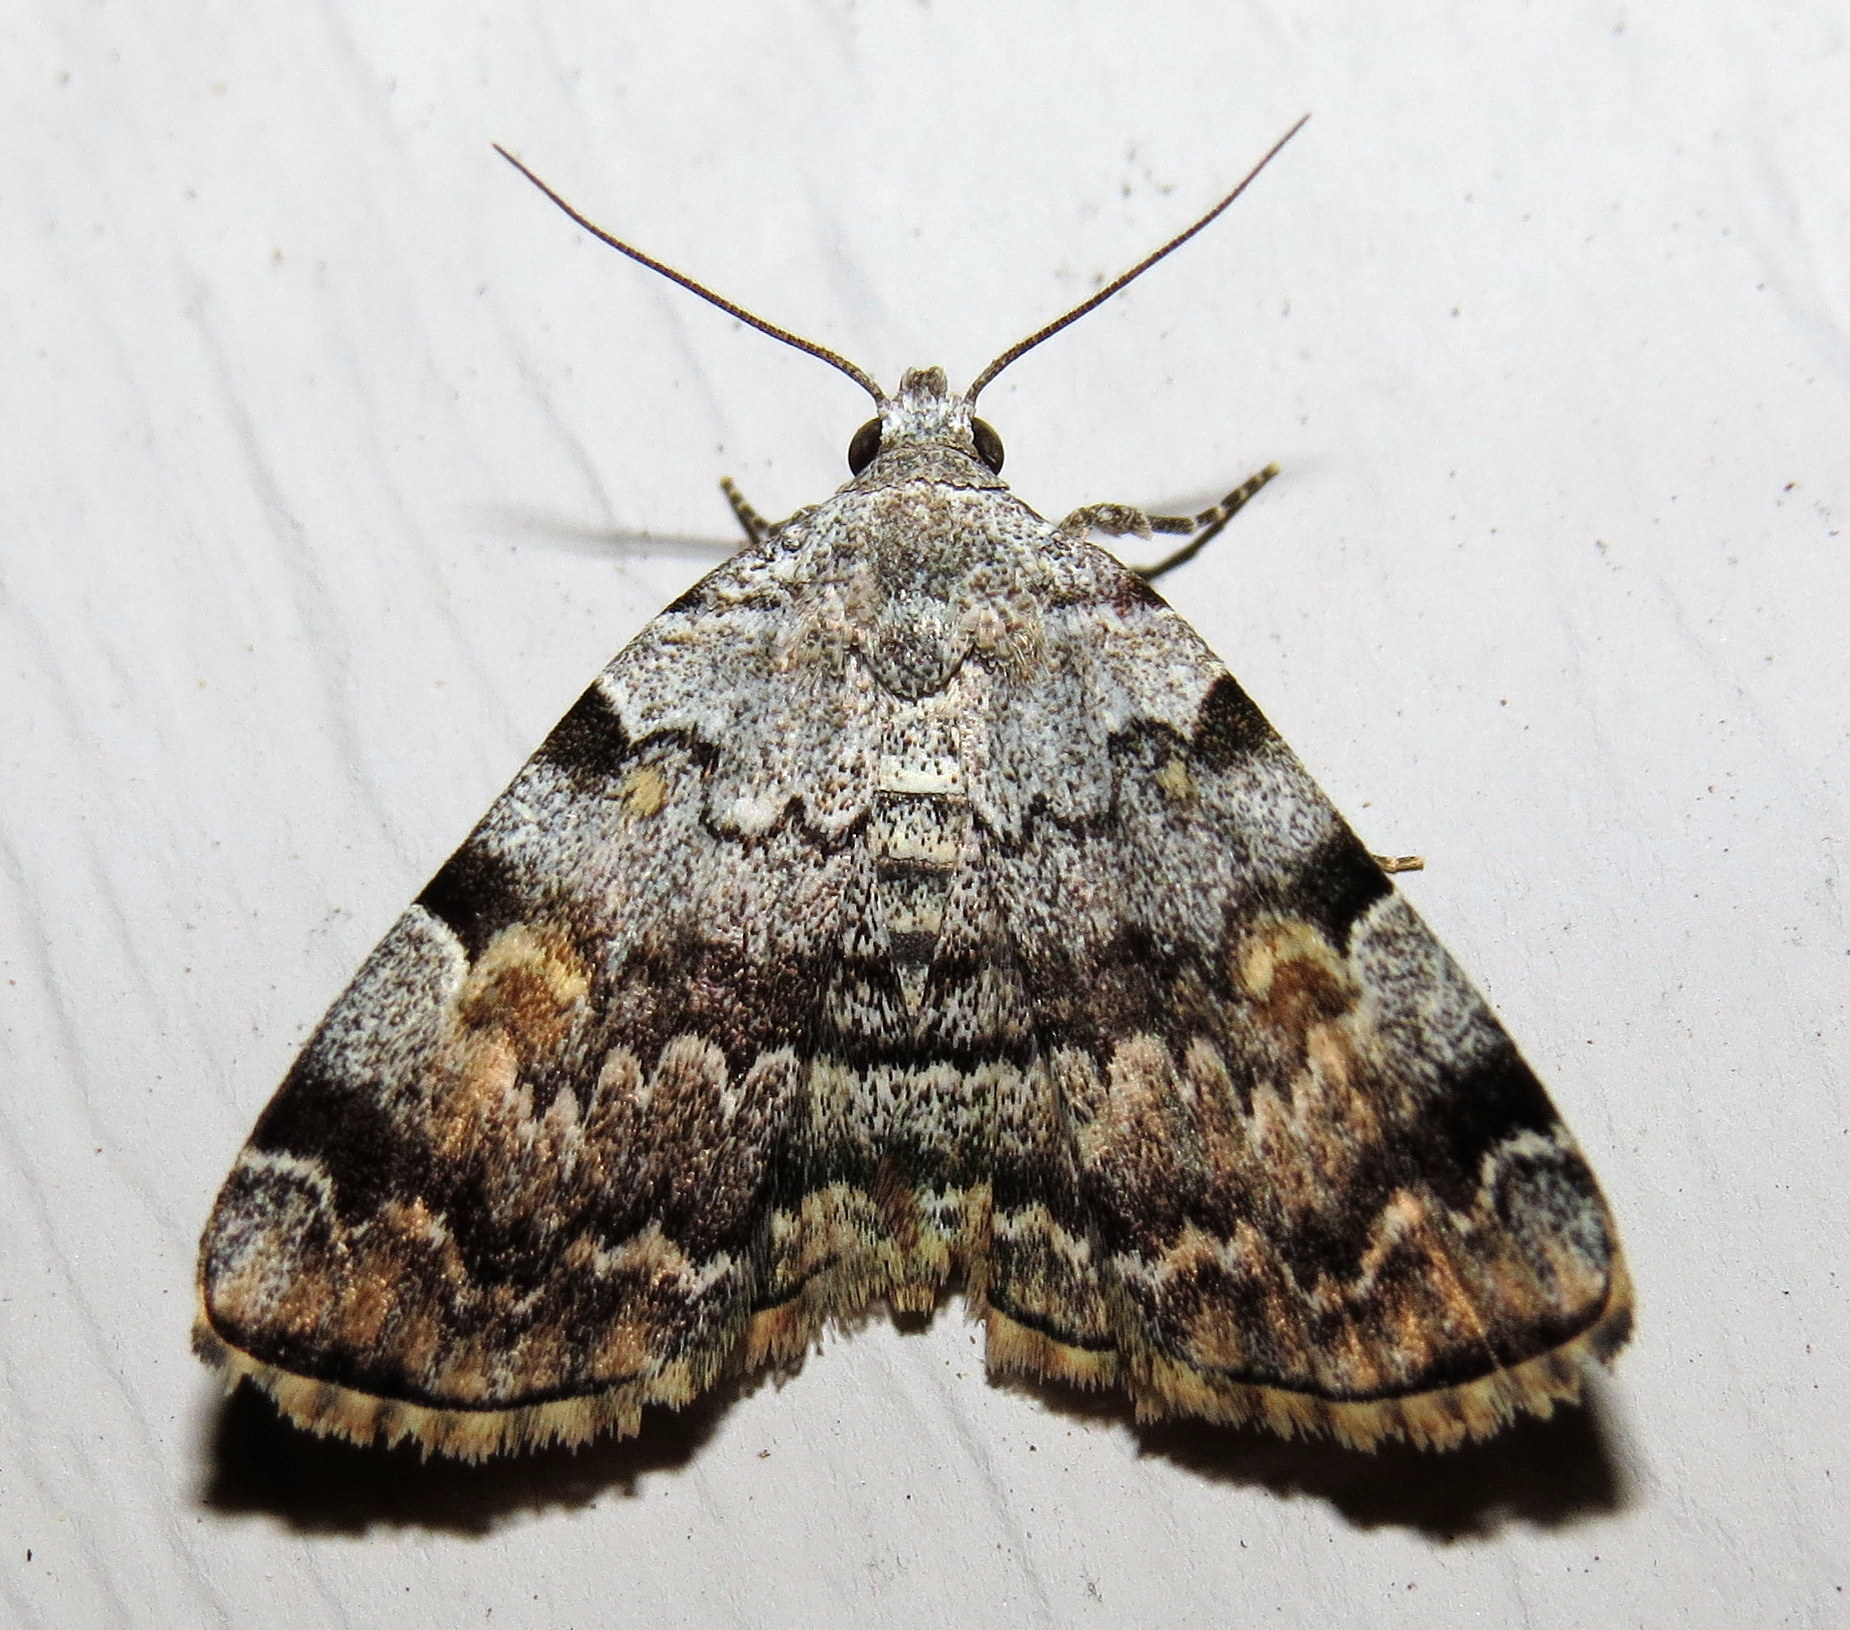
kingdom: Animalia
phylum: Arthropoda
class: Insecta
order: Lepidoptera
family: Erebidae
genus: Idia
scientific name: Idia americalis
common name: American idia moth
